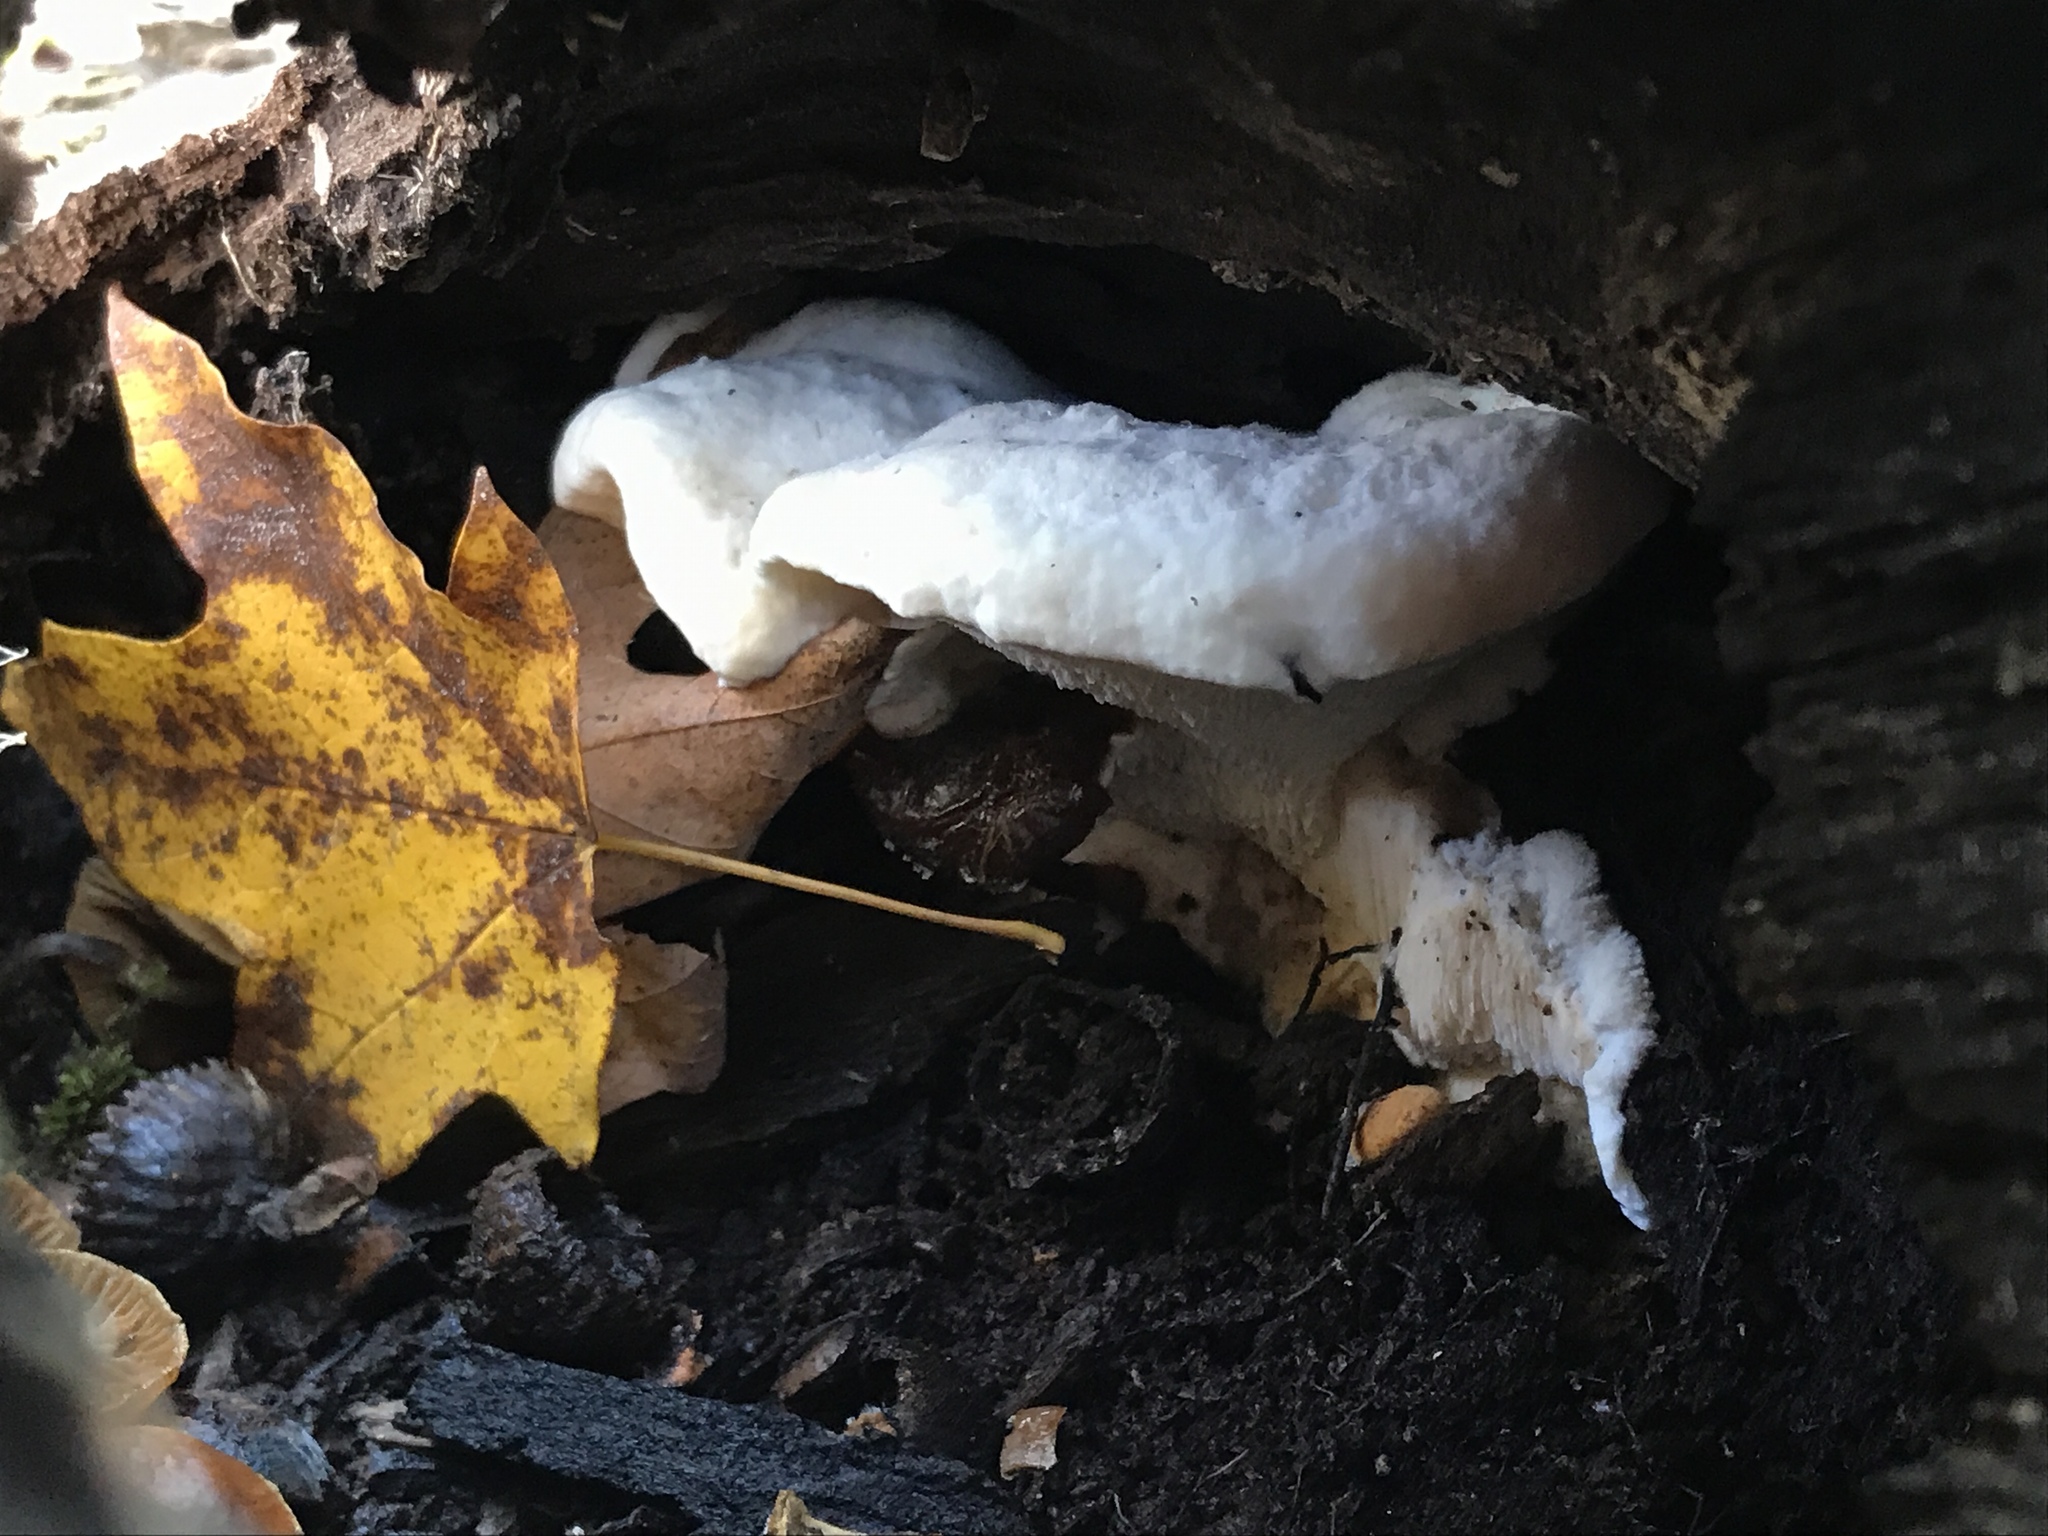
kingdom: Fungi
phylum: Basidiomycota
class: Agaricomycetes
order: Polyporales
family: Podoscyphaceae
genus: Abortiporus
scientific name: Abortiporus biennis
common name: Blushing rosette
